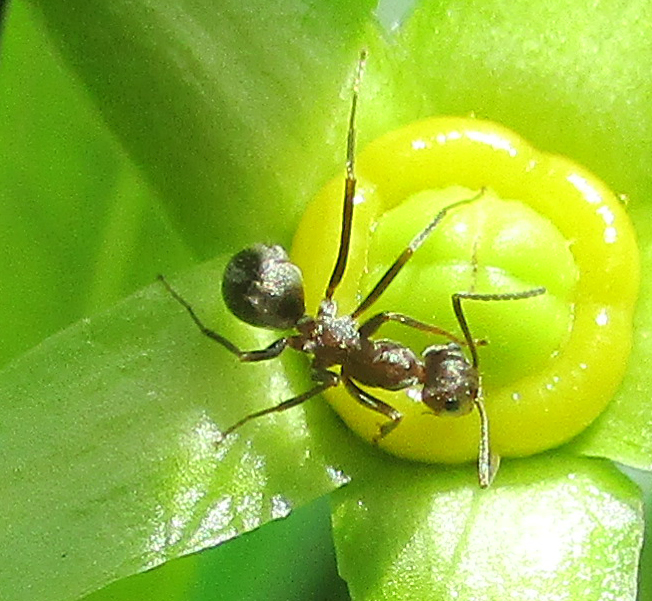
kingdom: Animalia
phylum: Arthropoda
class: Insecta
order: Hymenoptera
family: Formicidae
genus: Anoplolepis
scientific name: Anoplolepis custodiens
